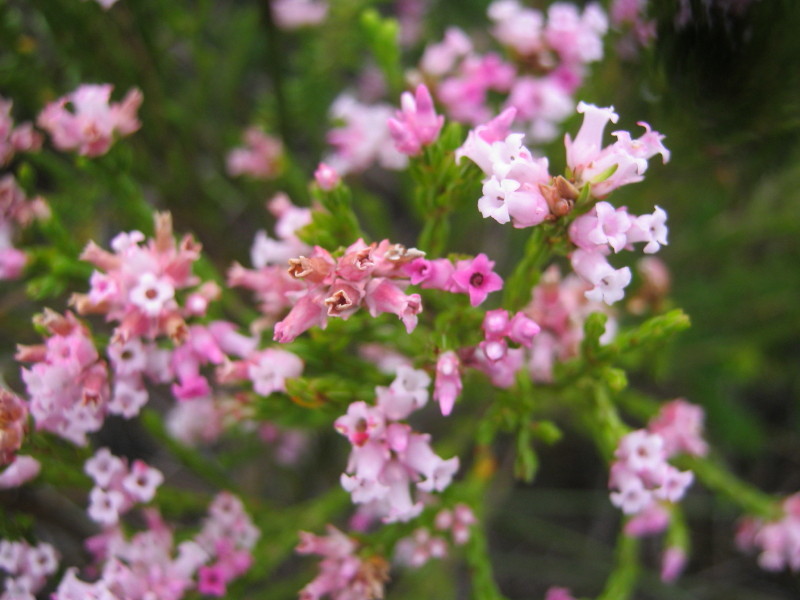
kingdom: Plantae
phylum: Tracheophyta
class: Magnoliopsida
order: Ericales
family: Ericaceae
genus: Erica
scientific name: Erica steinbergiana
